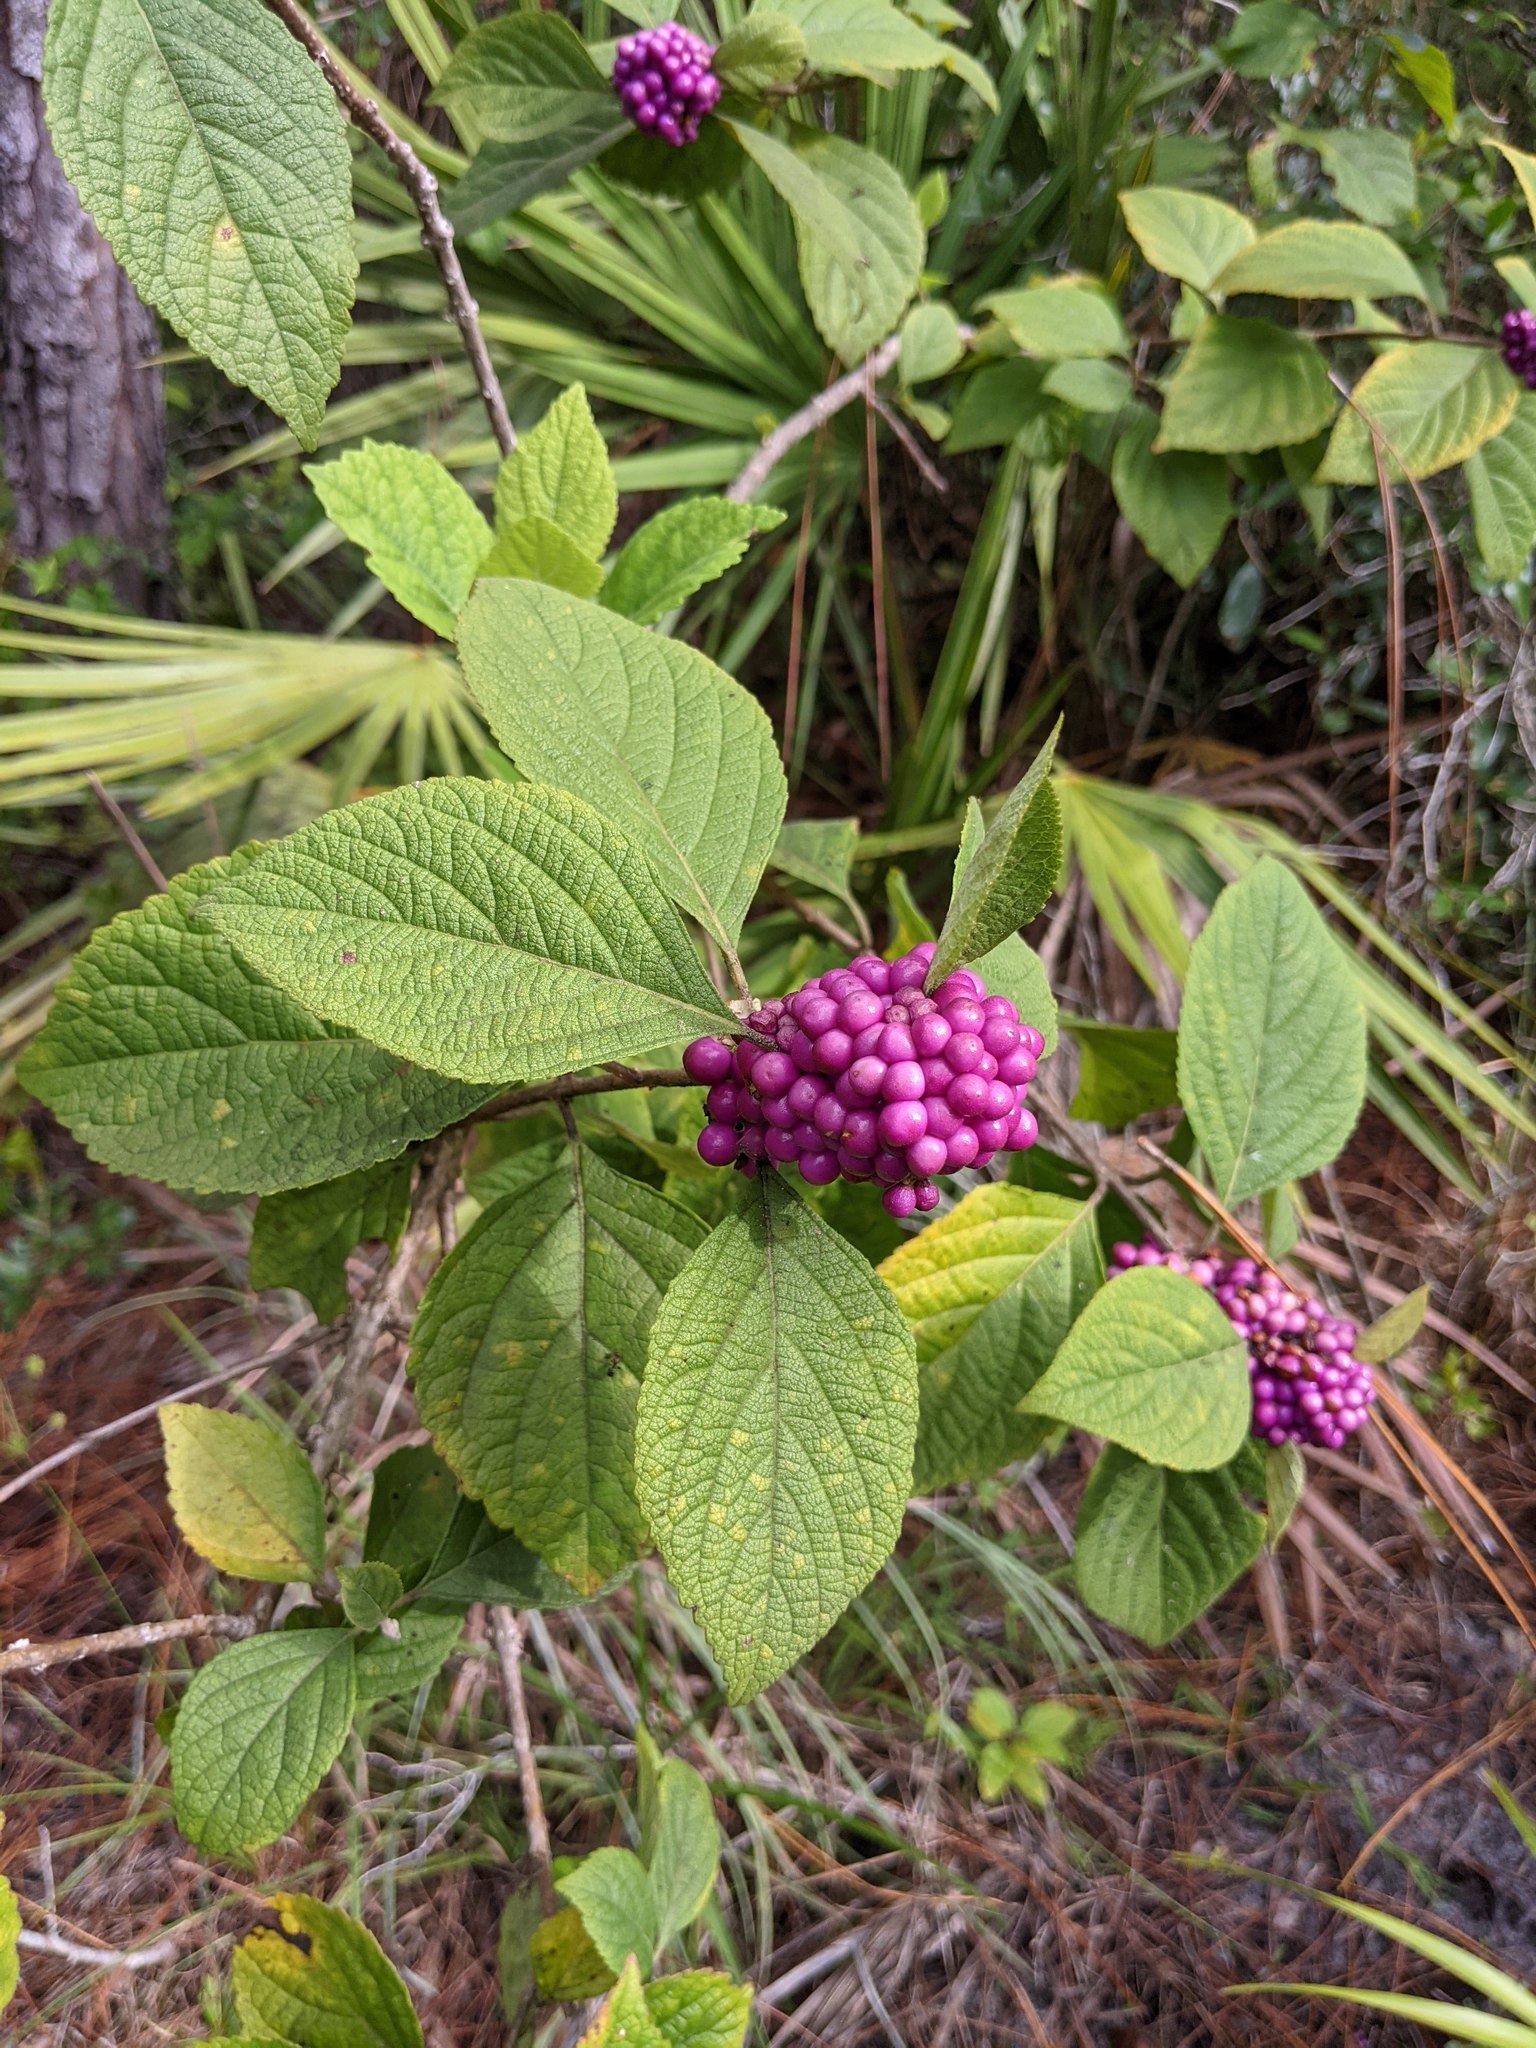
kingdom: Plantae
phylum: Tracheophyta
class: Magnoliopsida
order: Lamiales
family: Lamiaceae
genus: Callicarpa
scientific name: Callicarpa americana
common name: American beautyberry
